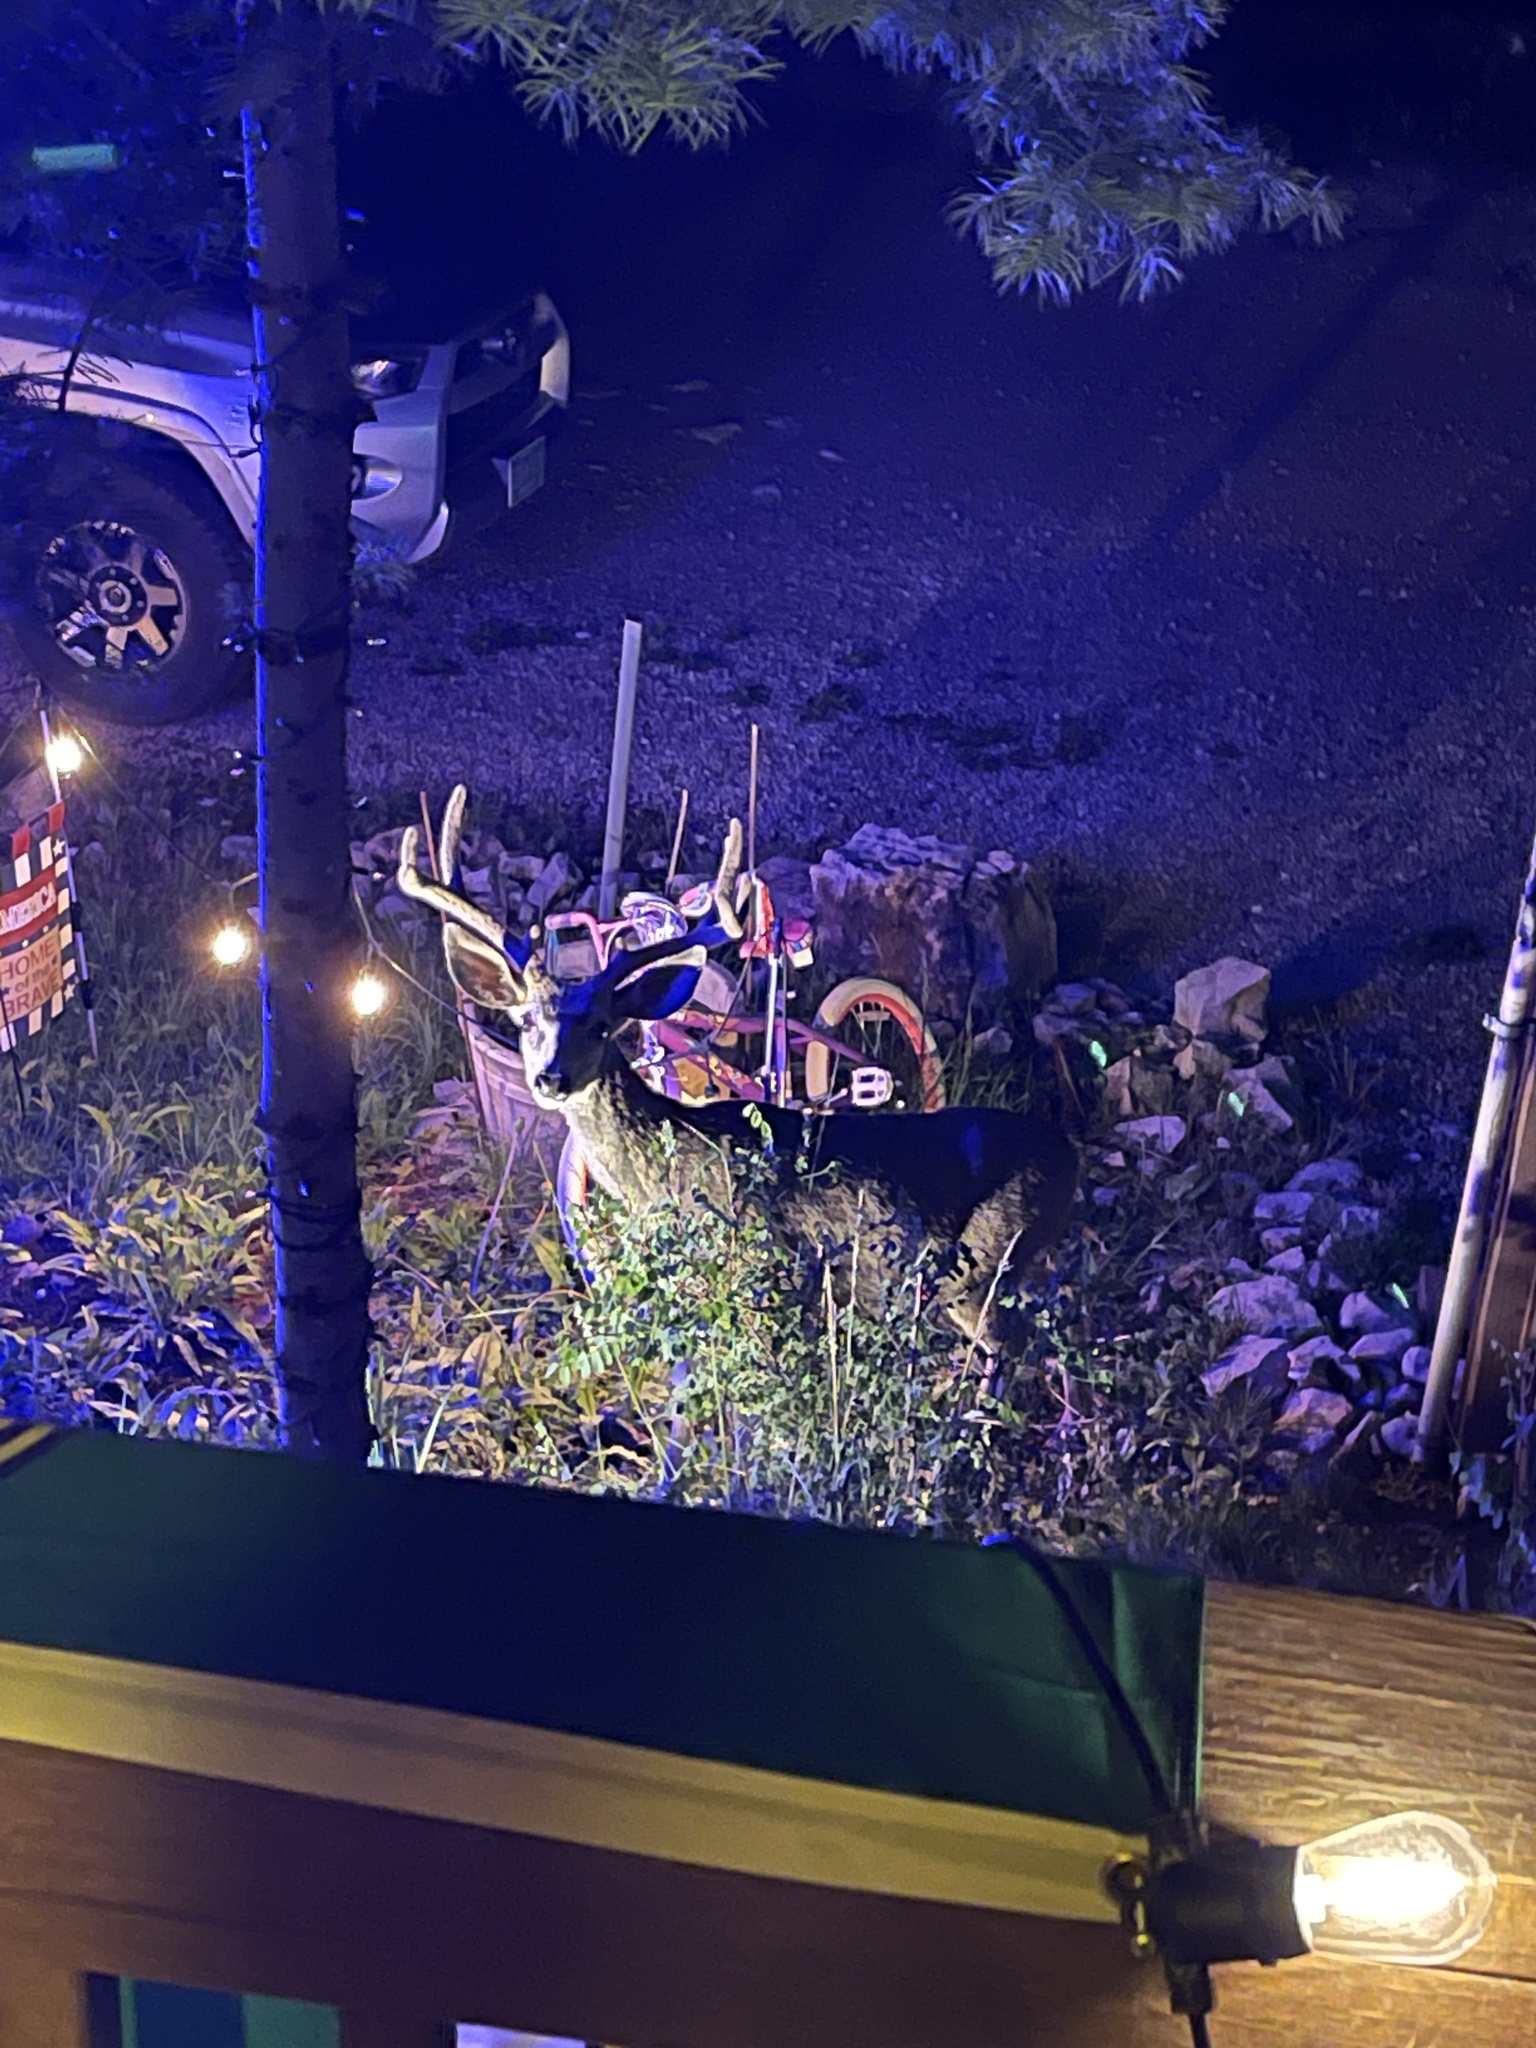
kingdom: Animalia
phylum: Chordata
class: Mammalia
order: Artiodactyla
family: Cervidae
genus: Odocoileus
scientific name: Odocoileus hemionus
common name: Mule deer
